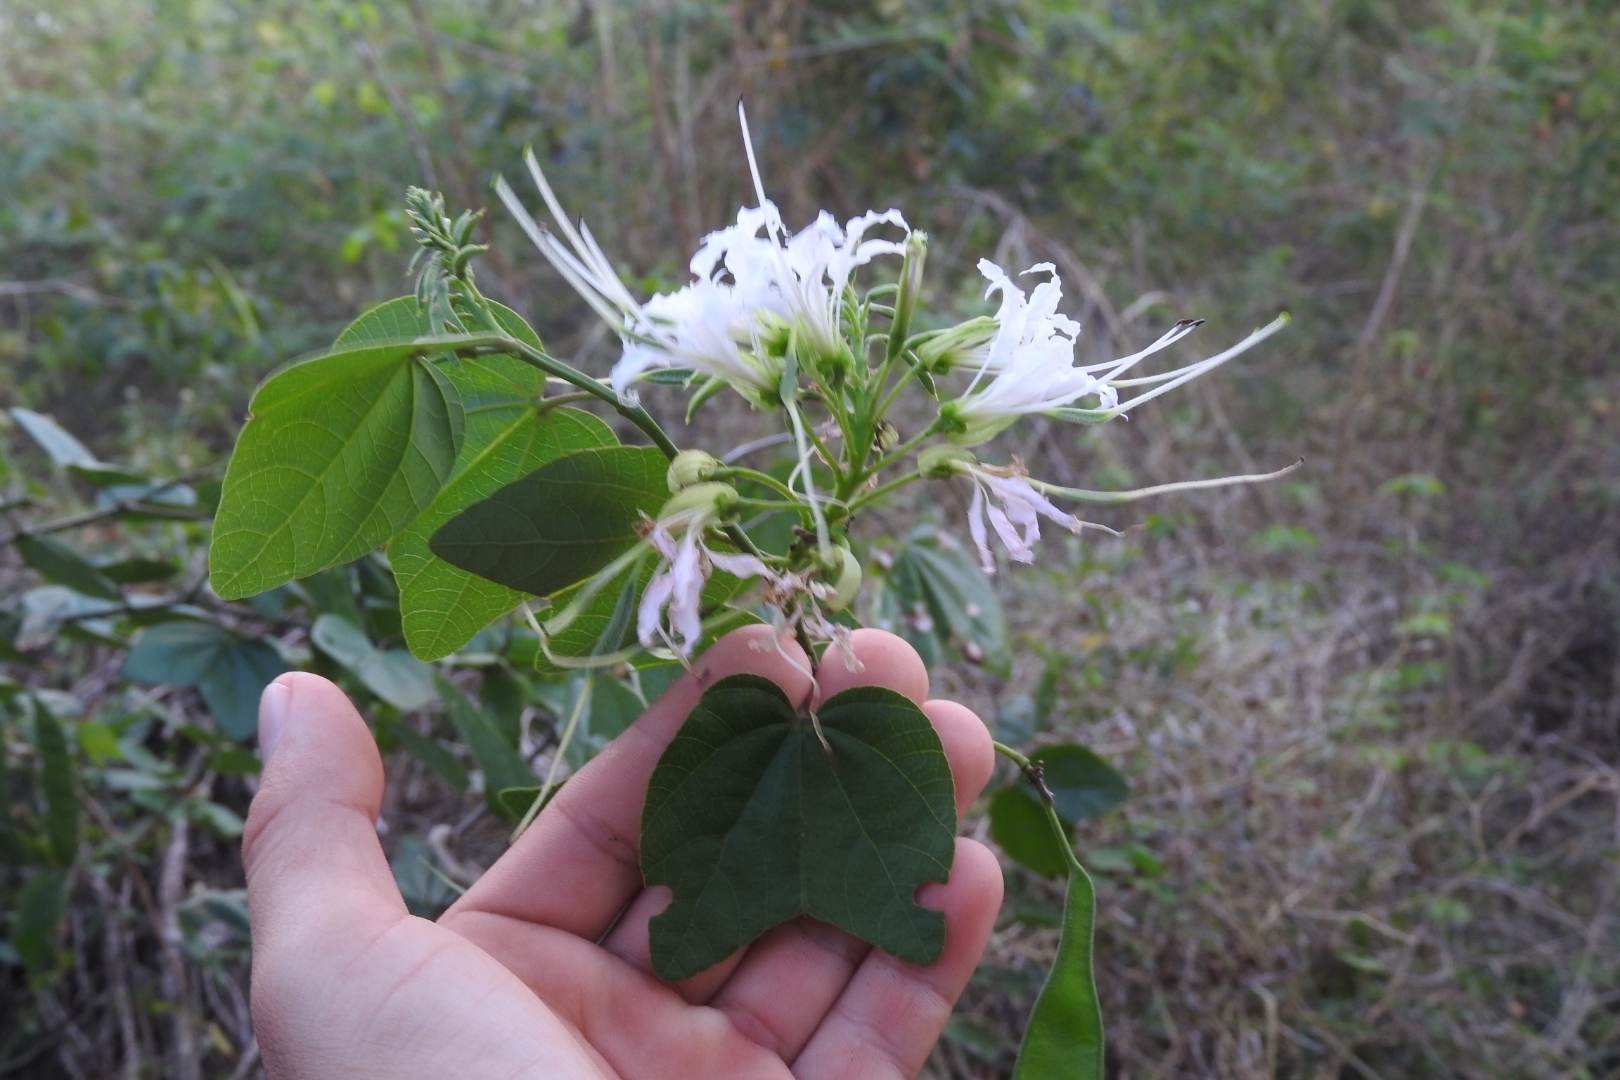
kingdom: Plantae
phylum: Tracheophyta
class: Magnoliopsida
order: Fabales
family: Fabaceae
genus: Bauhinia
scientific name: Bauhinia divaricata
